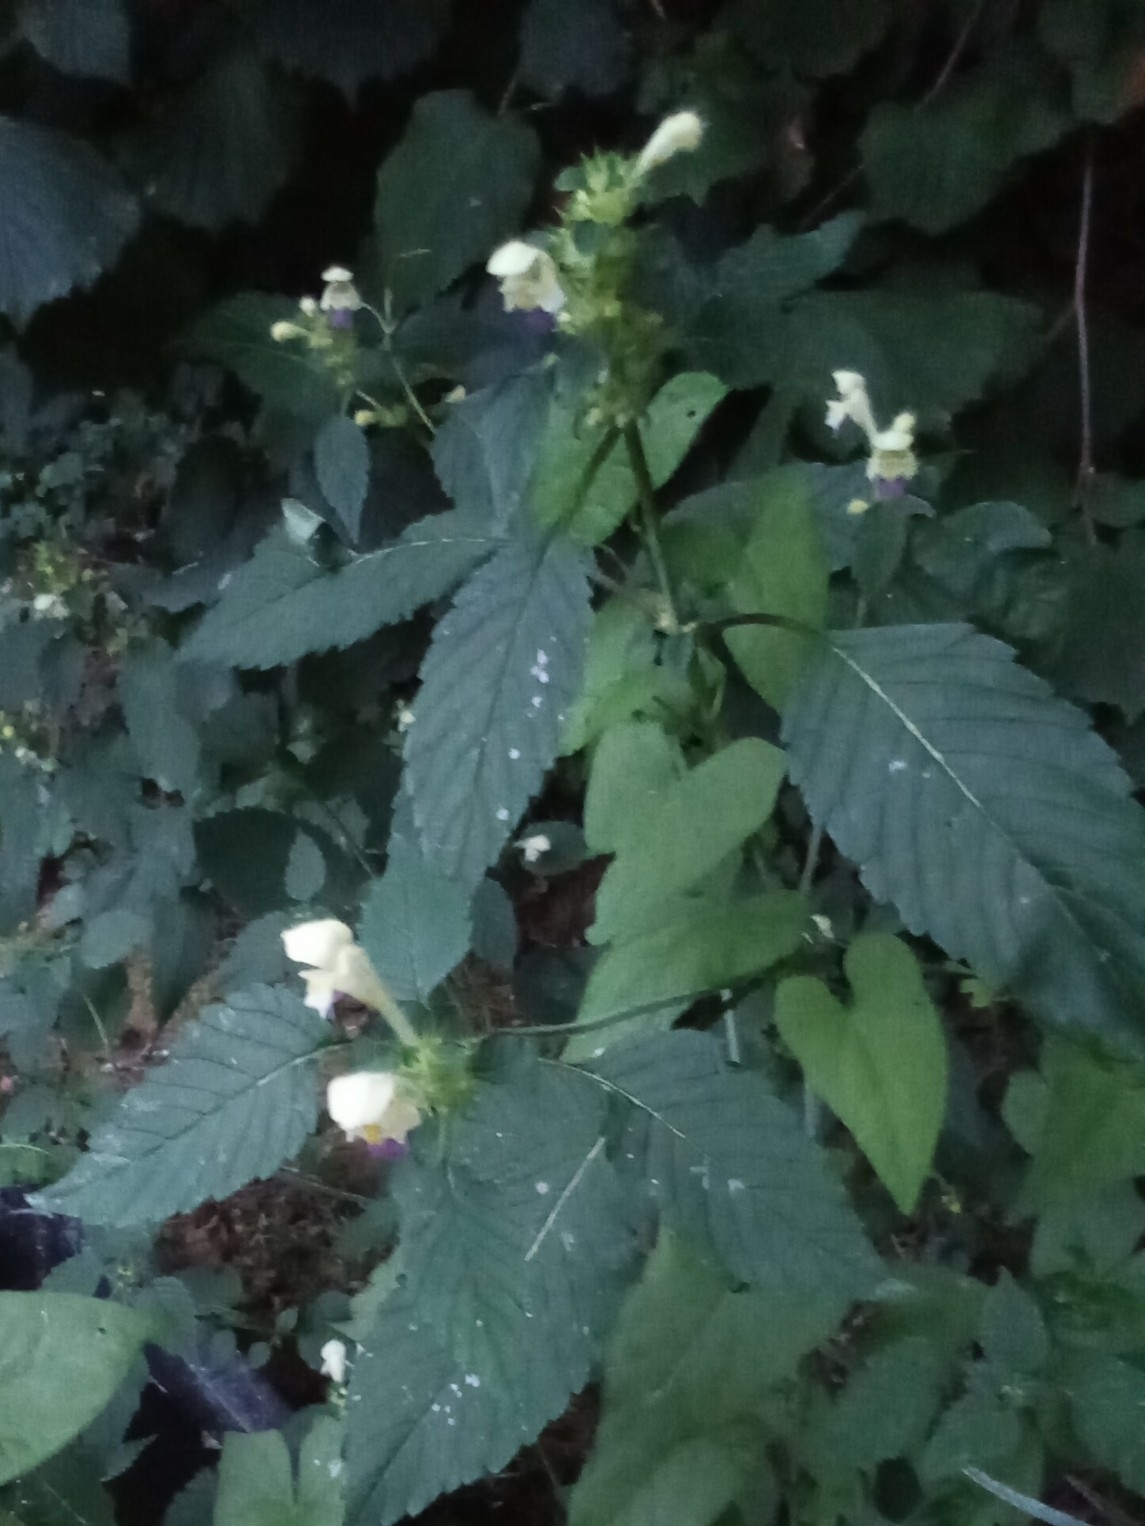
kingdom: Plantae
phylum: Tracheophyta
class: Magnoliopsida
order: Lamiales
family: Lamiaceae
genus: Galeopsis
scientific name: Galeopsis speciosa
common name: Large-flowered hemp-nettle
